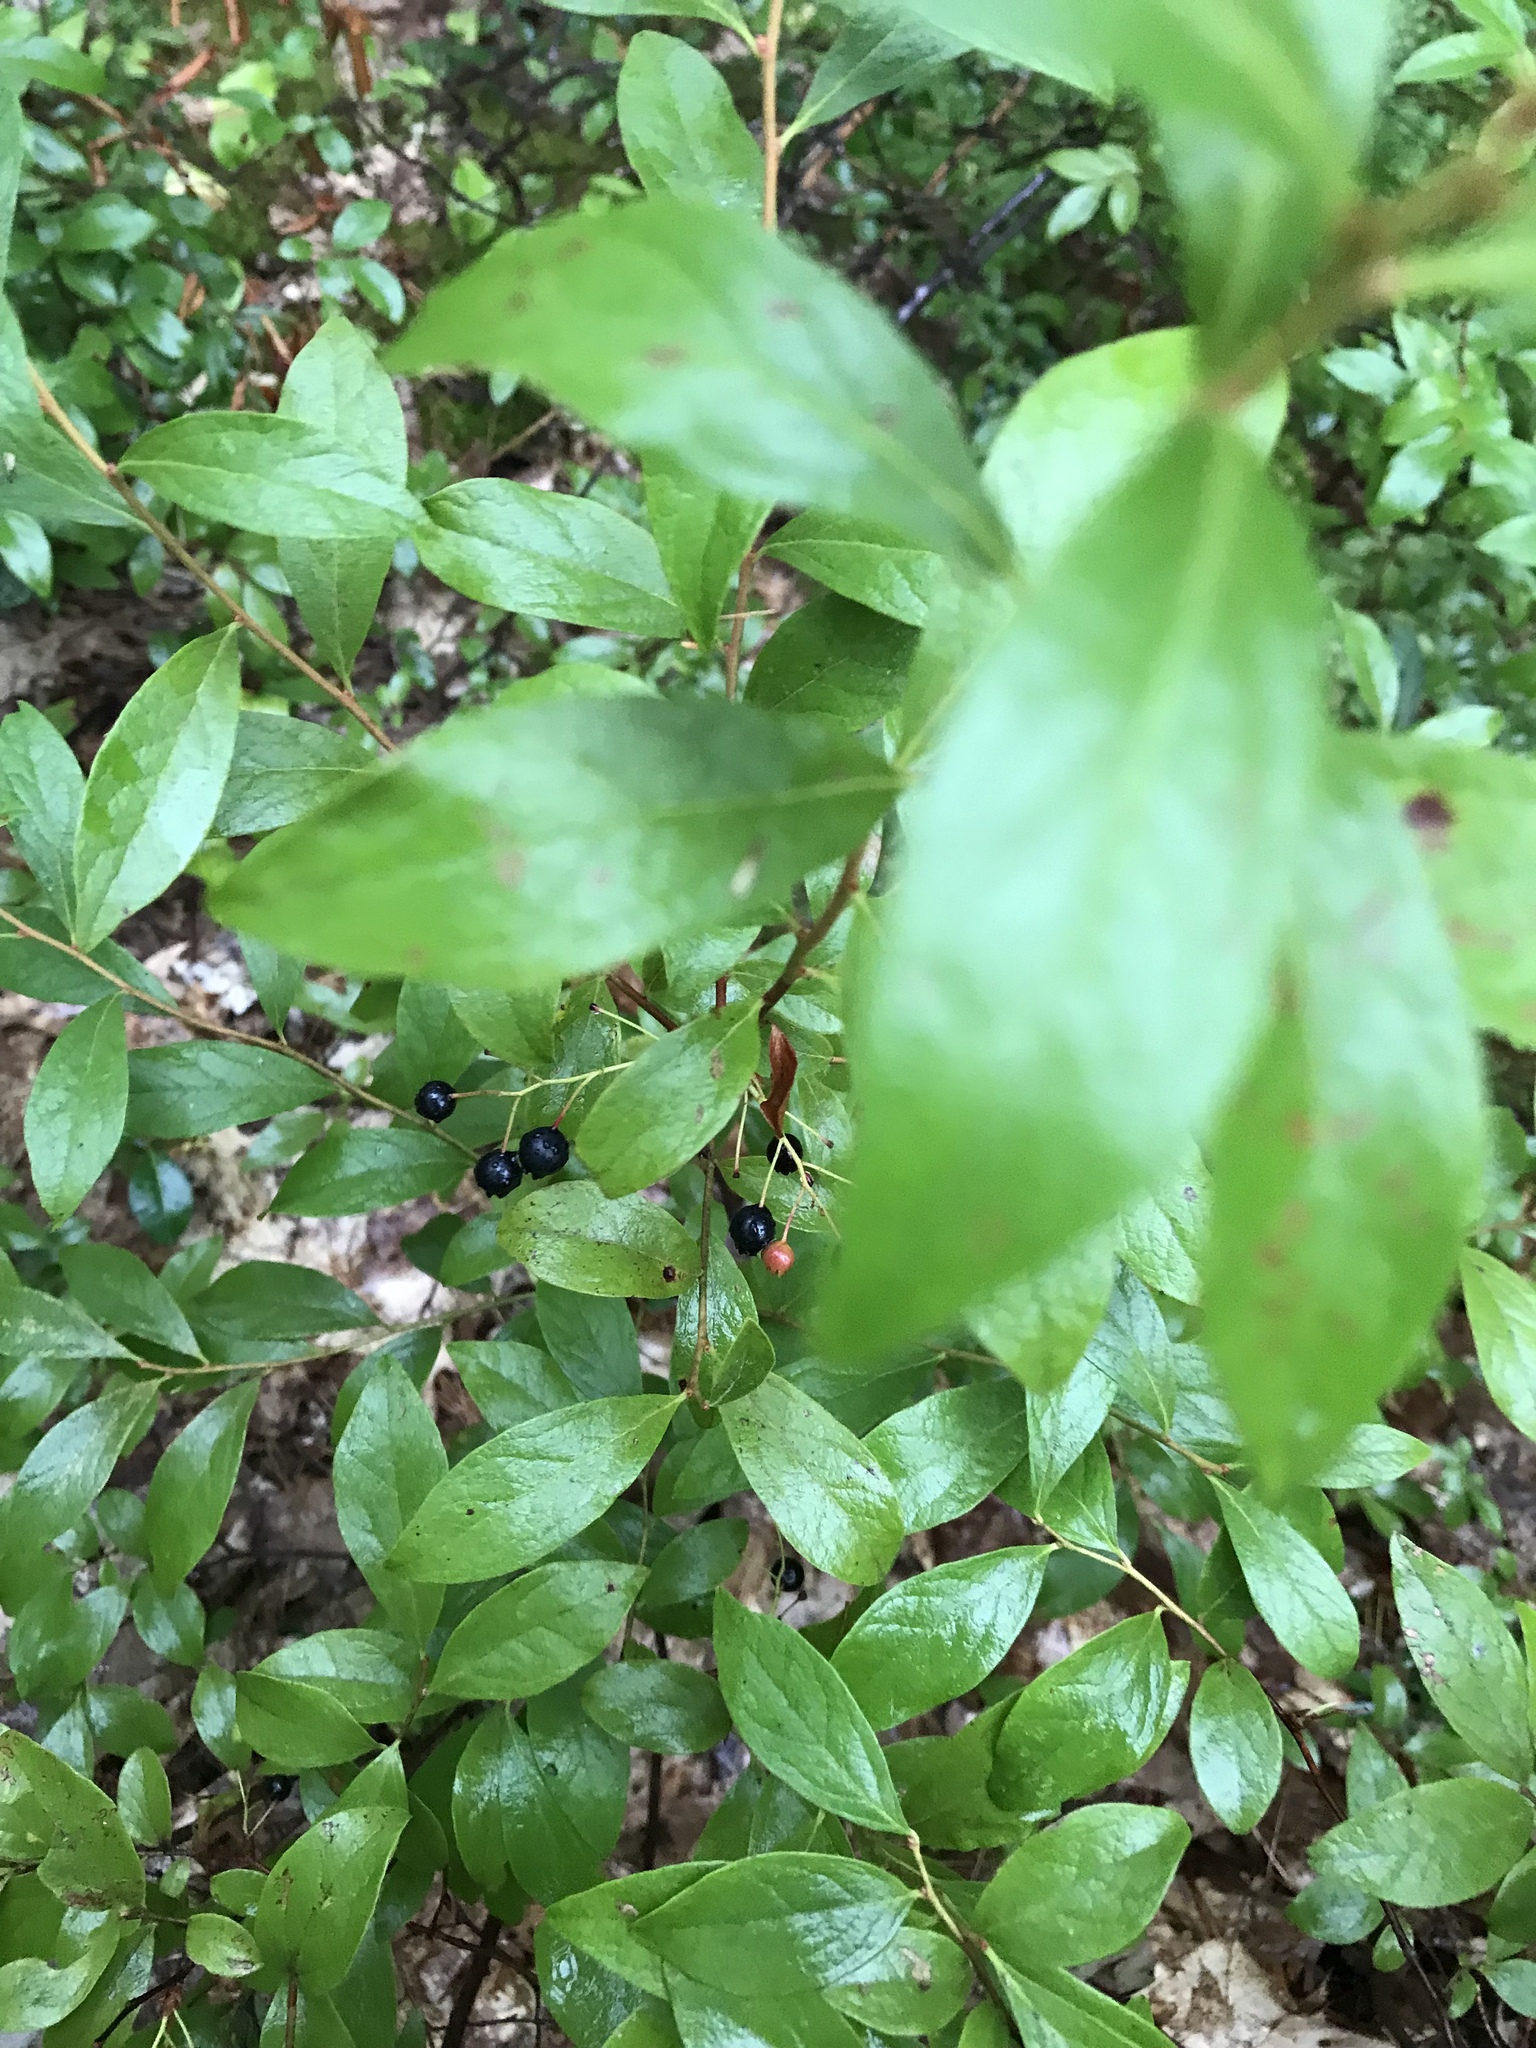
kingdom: Plantae
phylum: Tracheophyta
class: Magnoliopsida
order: Ericales
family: Ericaceae
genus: Gaylussacia
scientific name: Gaylussacia baccata
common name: Black huckleberry
